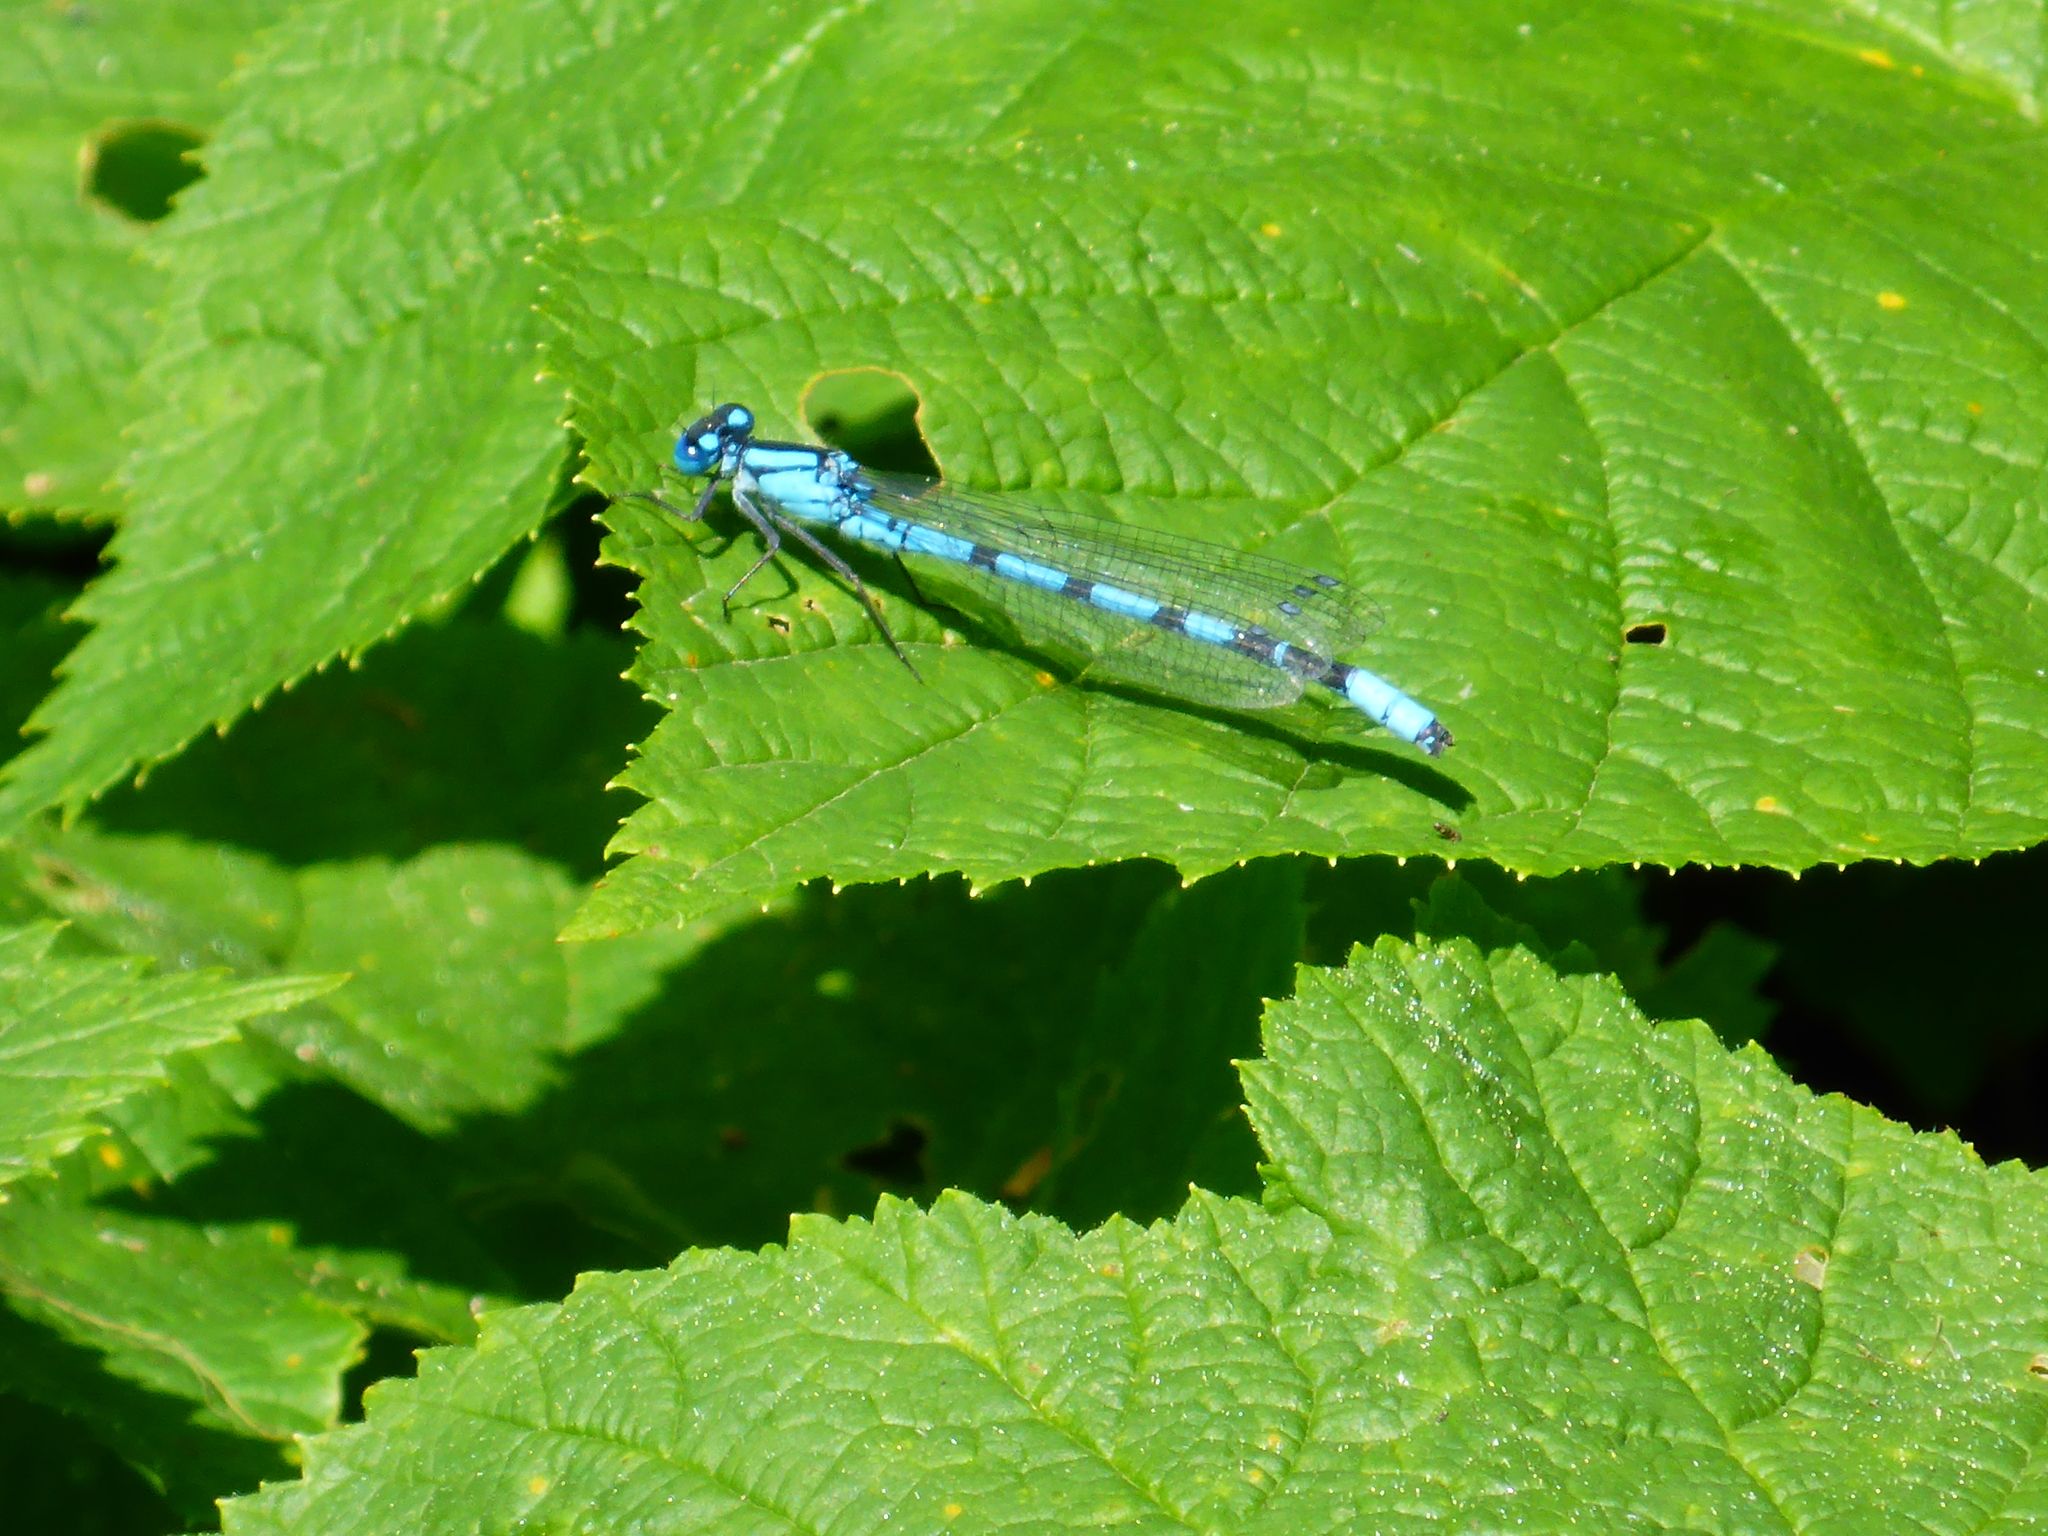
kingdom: Animalia
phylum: Arthropoda
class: Insecta
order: Odonata
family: Coenagrionidae
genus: Enallagma
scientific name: Enallagma ebrium
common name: Marsh bluet
